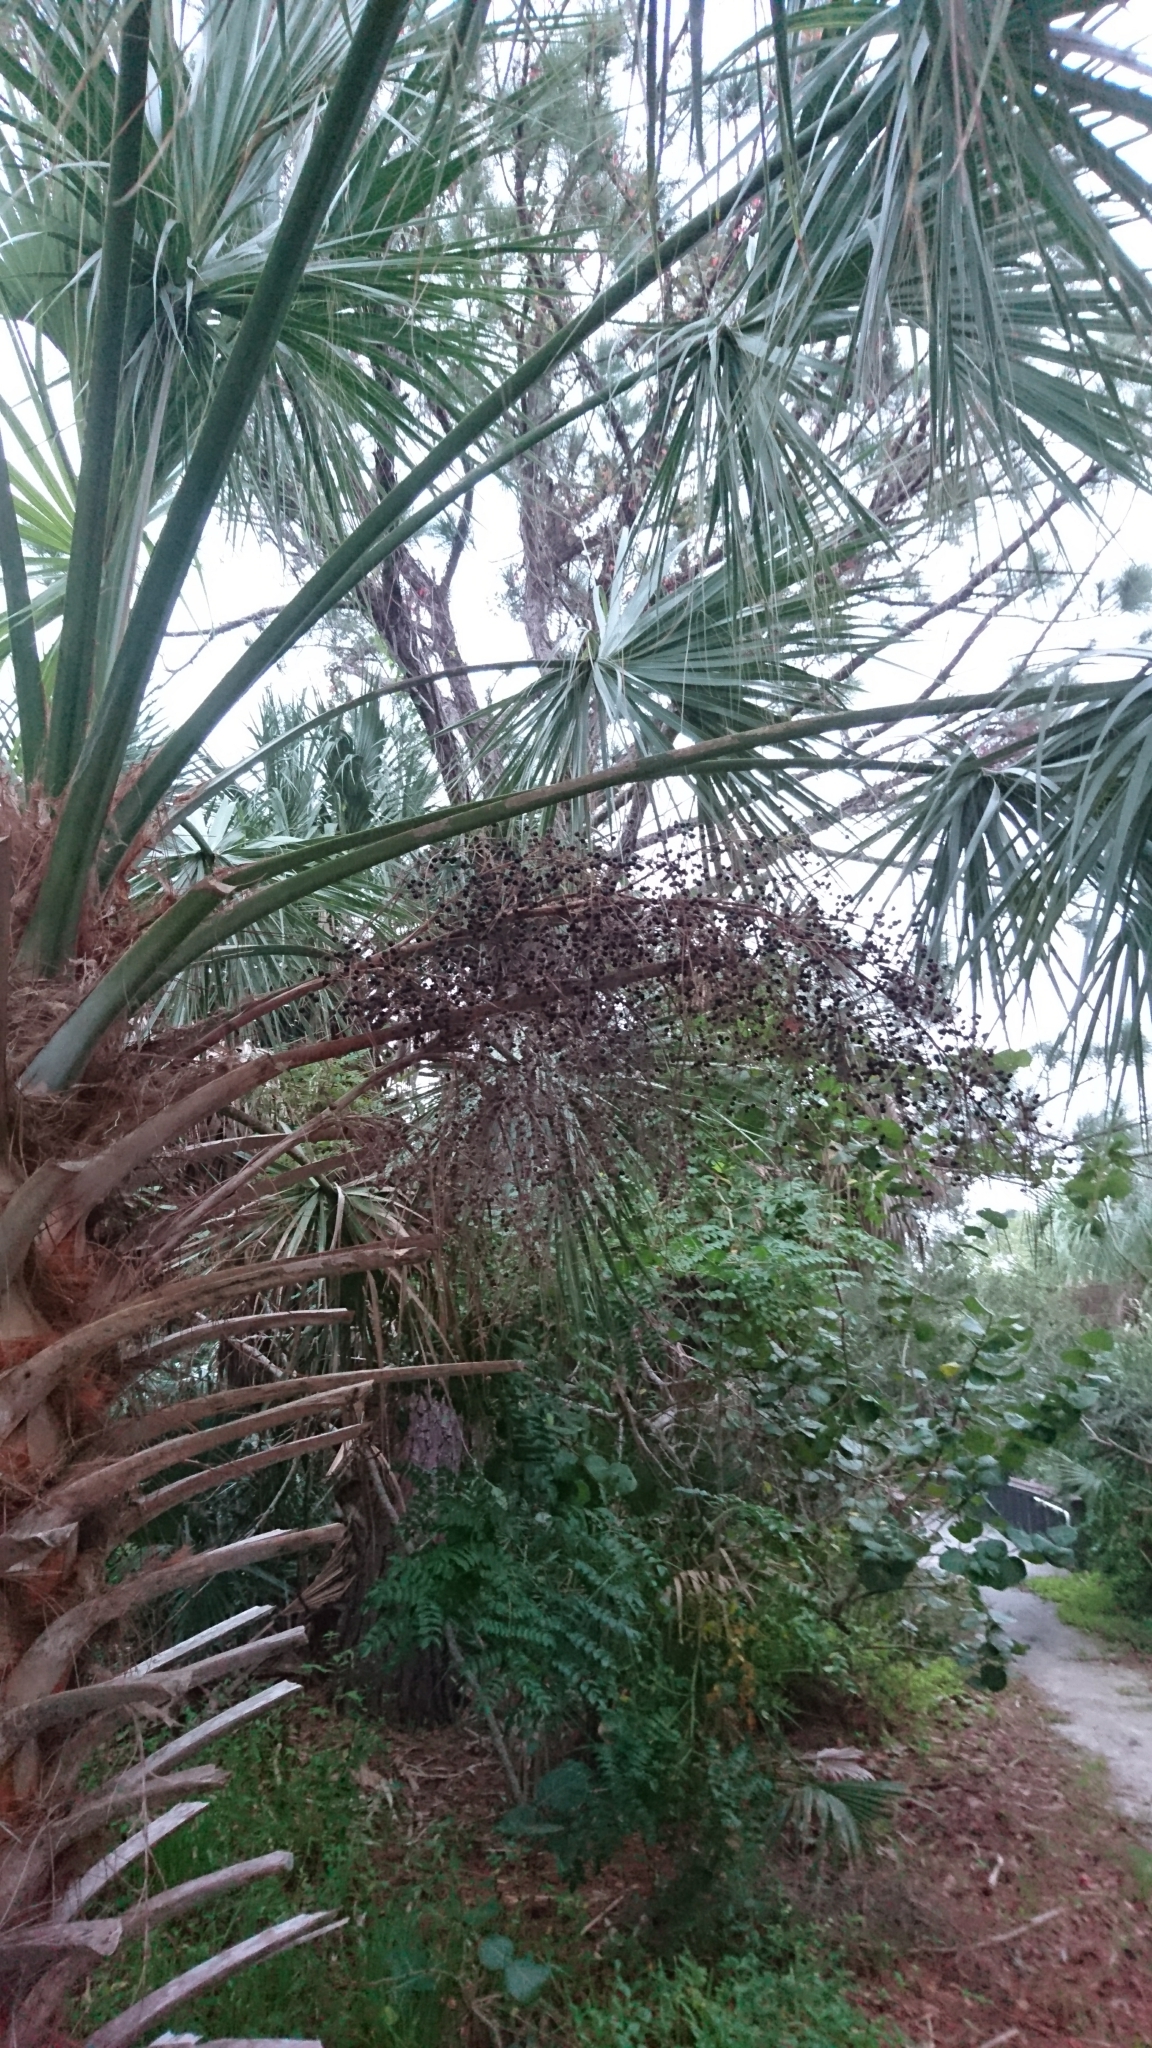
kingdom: Plantae
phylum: Tracheophyta
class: Liliopsida
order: Arecales
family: Arecaceae
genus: Sabal
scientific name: Sabal palmetto
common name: Blue palmetto
